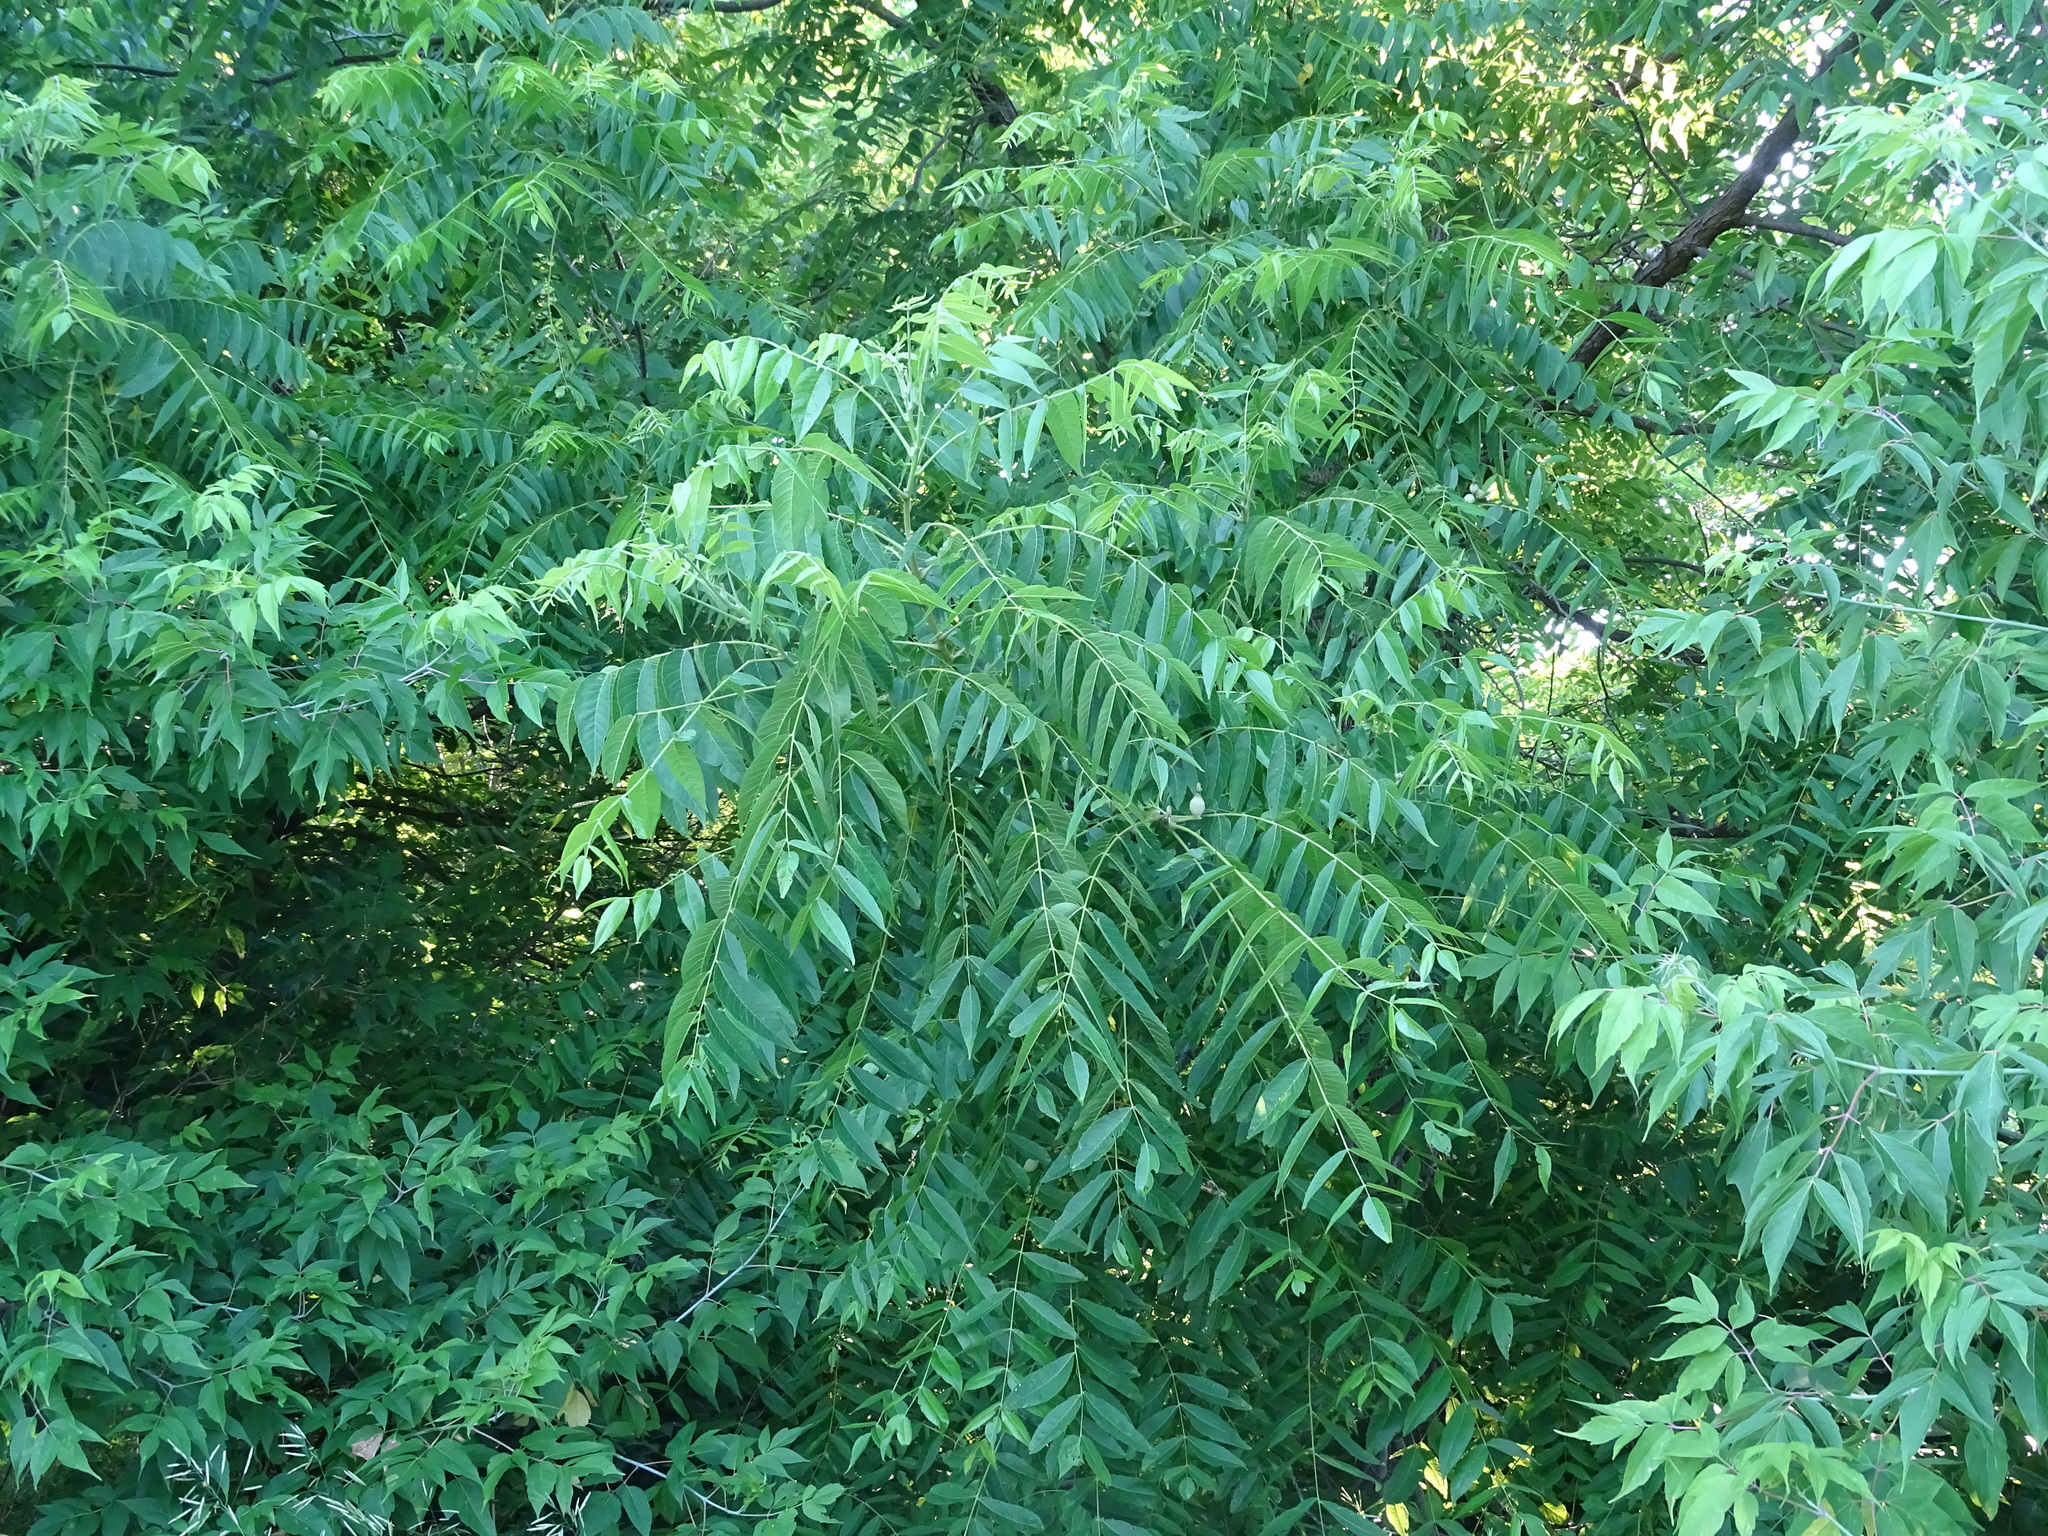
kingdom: Plantae
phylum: Tracheophyta
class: Magnoliopsida
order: Fagales
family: Juglandaceae
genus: Juglans
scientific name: Juglans nigra
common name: Black walnut
